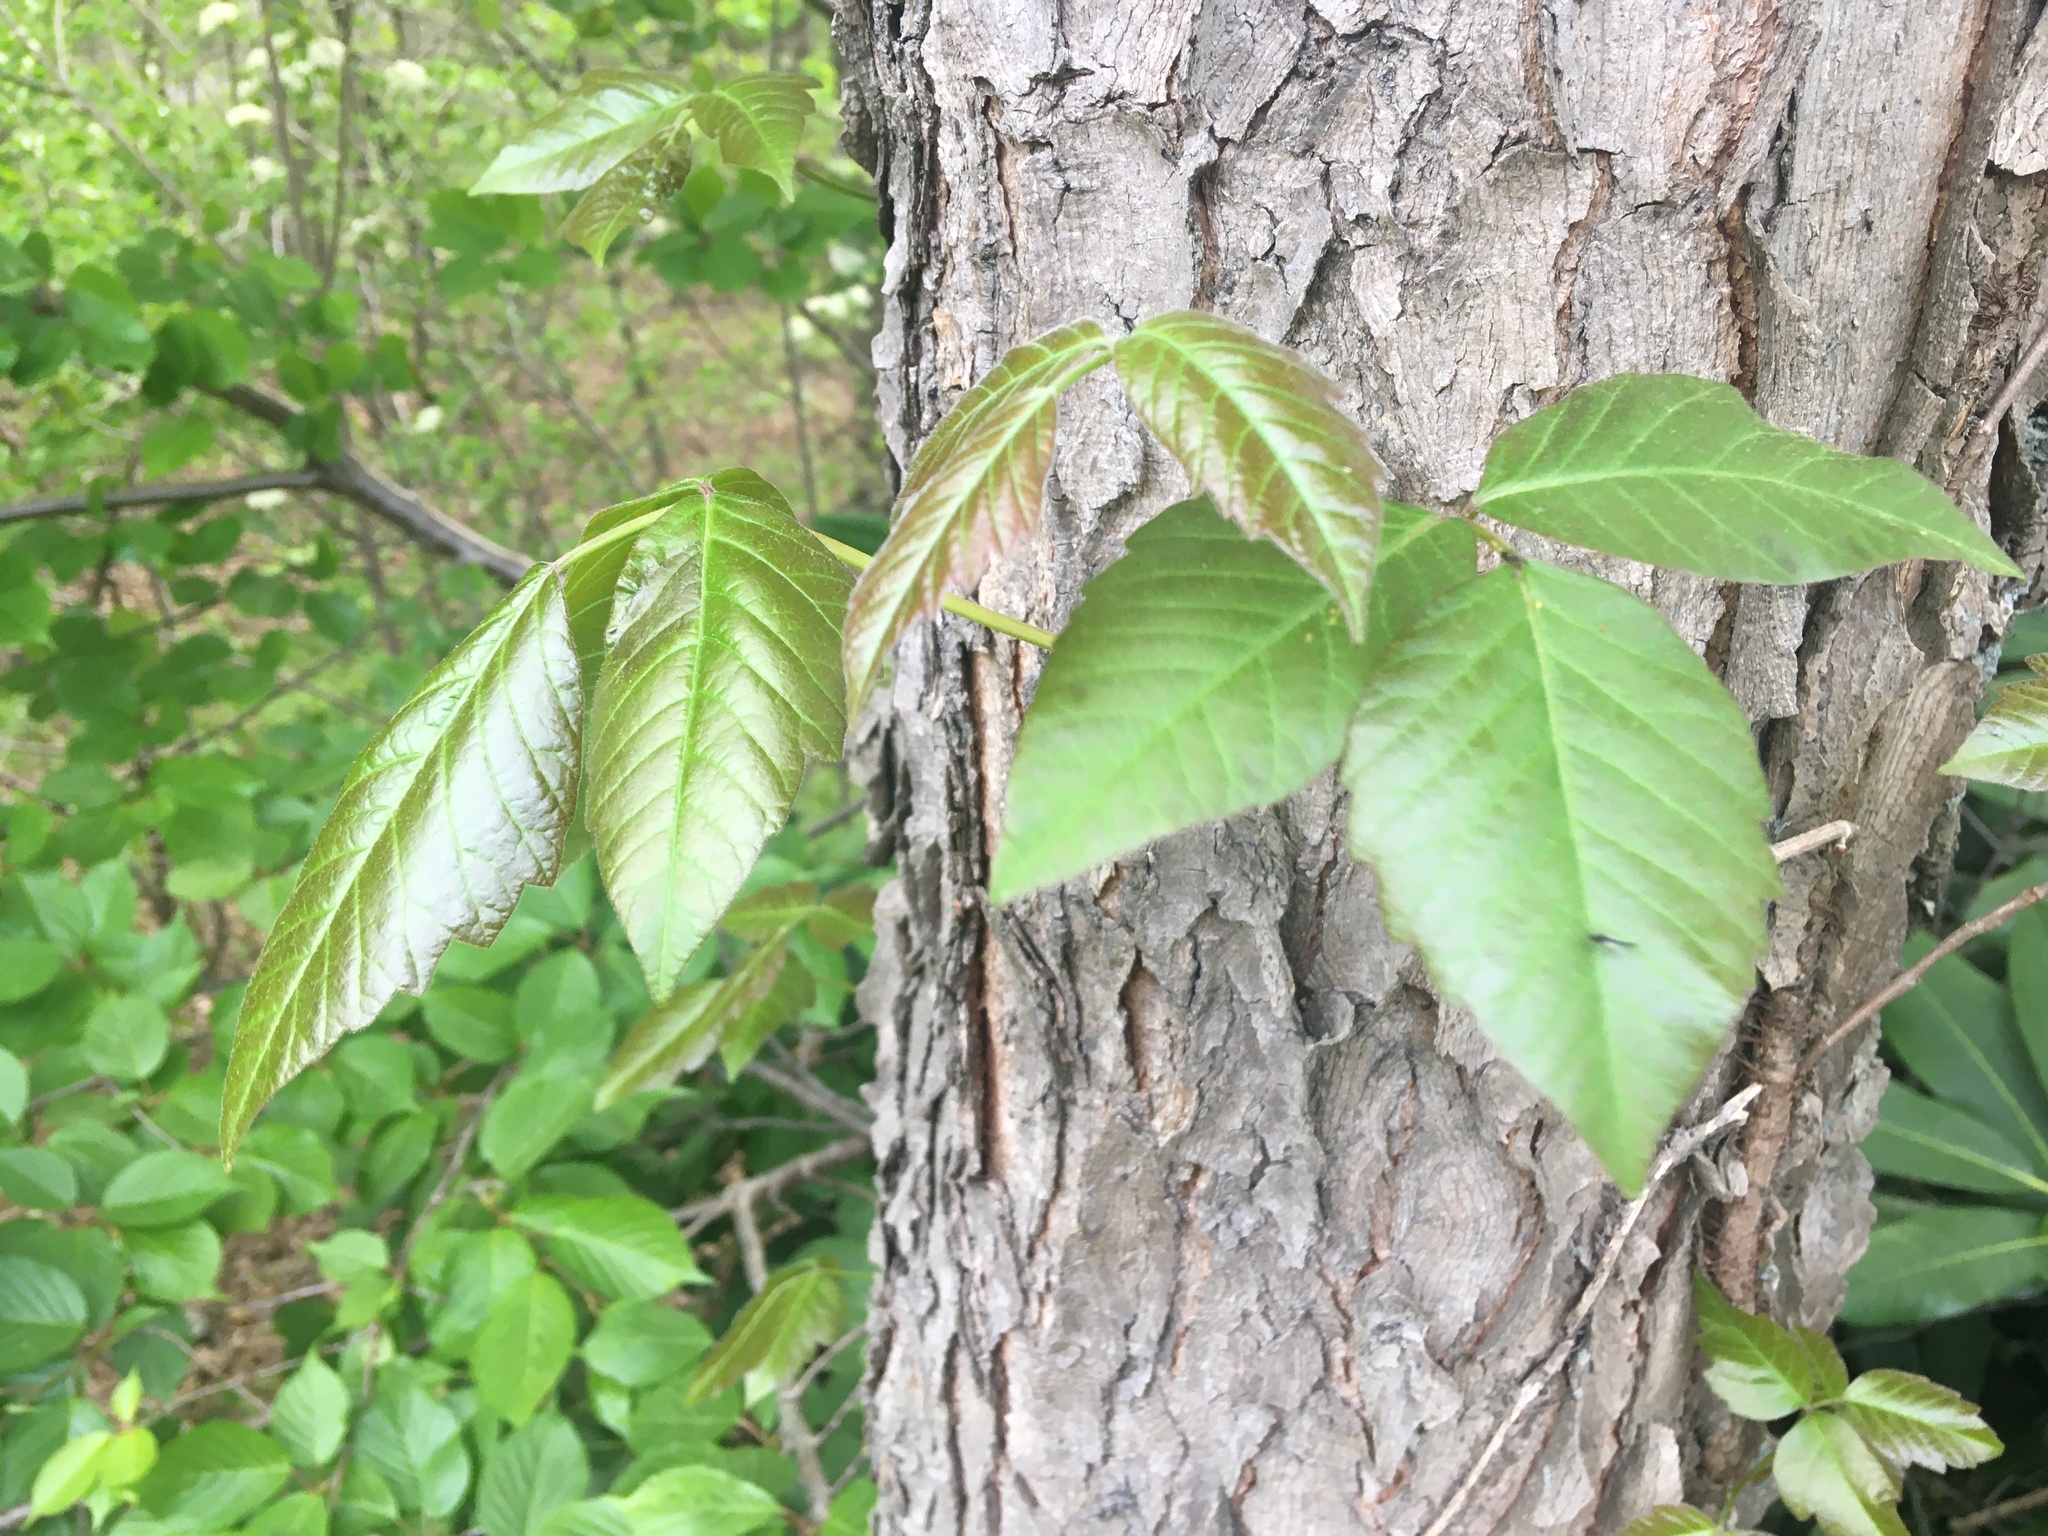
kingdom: Plantae
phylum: Tracheophyta
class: Magnoliopsida
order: Sapindales
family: Anacardiaceae
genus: Toxicodendron
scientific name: Toxicodendron radicans
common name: Poison ivy
